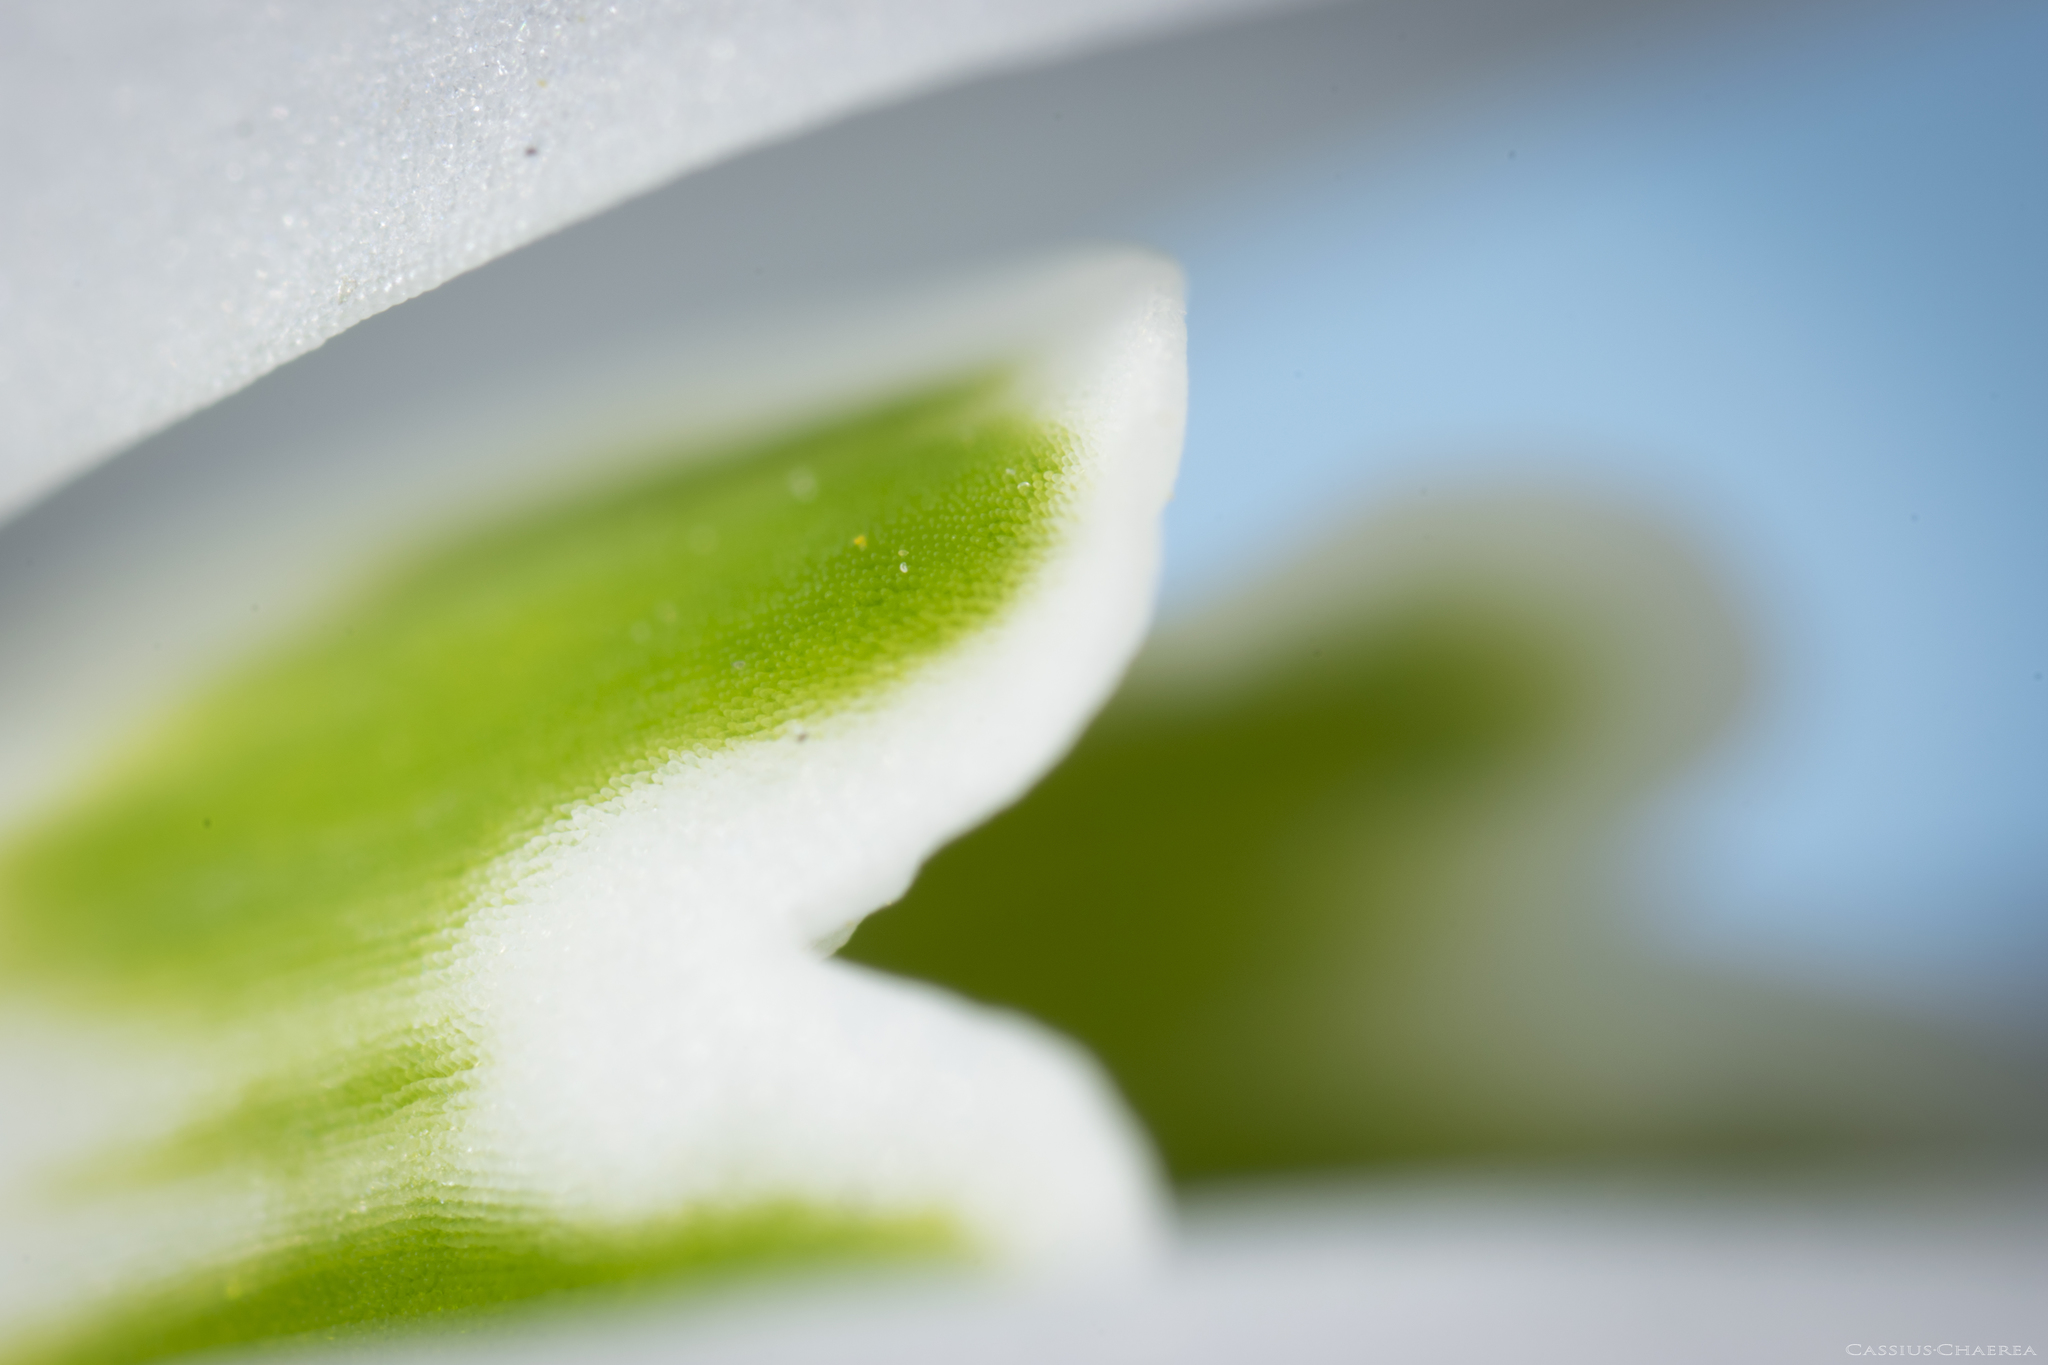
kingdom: Plantae
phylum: Tracheophyta
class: Liliopsida
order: Asparagales
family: Amaryllidaceae
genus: Galanthus
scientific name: Galanthus nivalis
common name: Snowdrop
